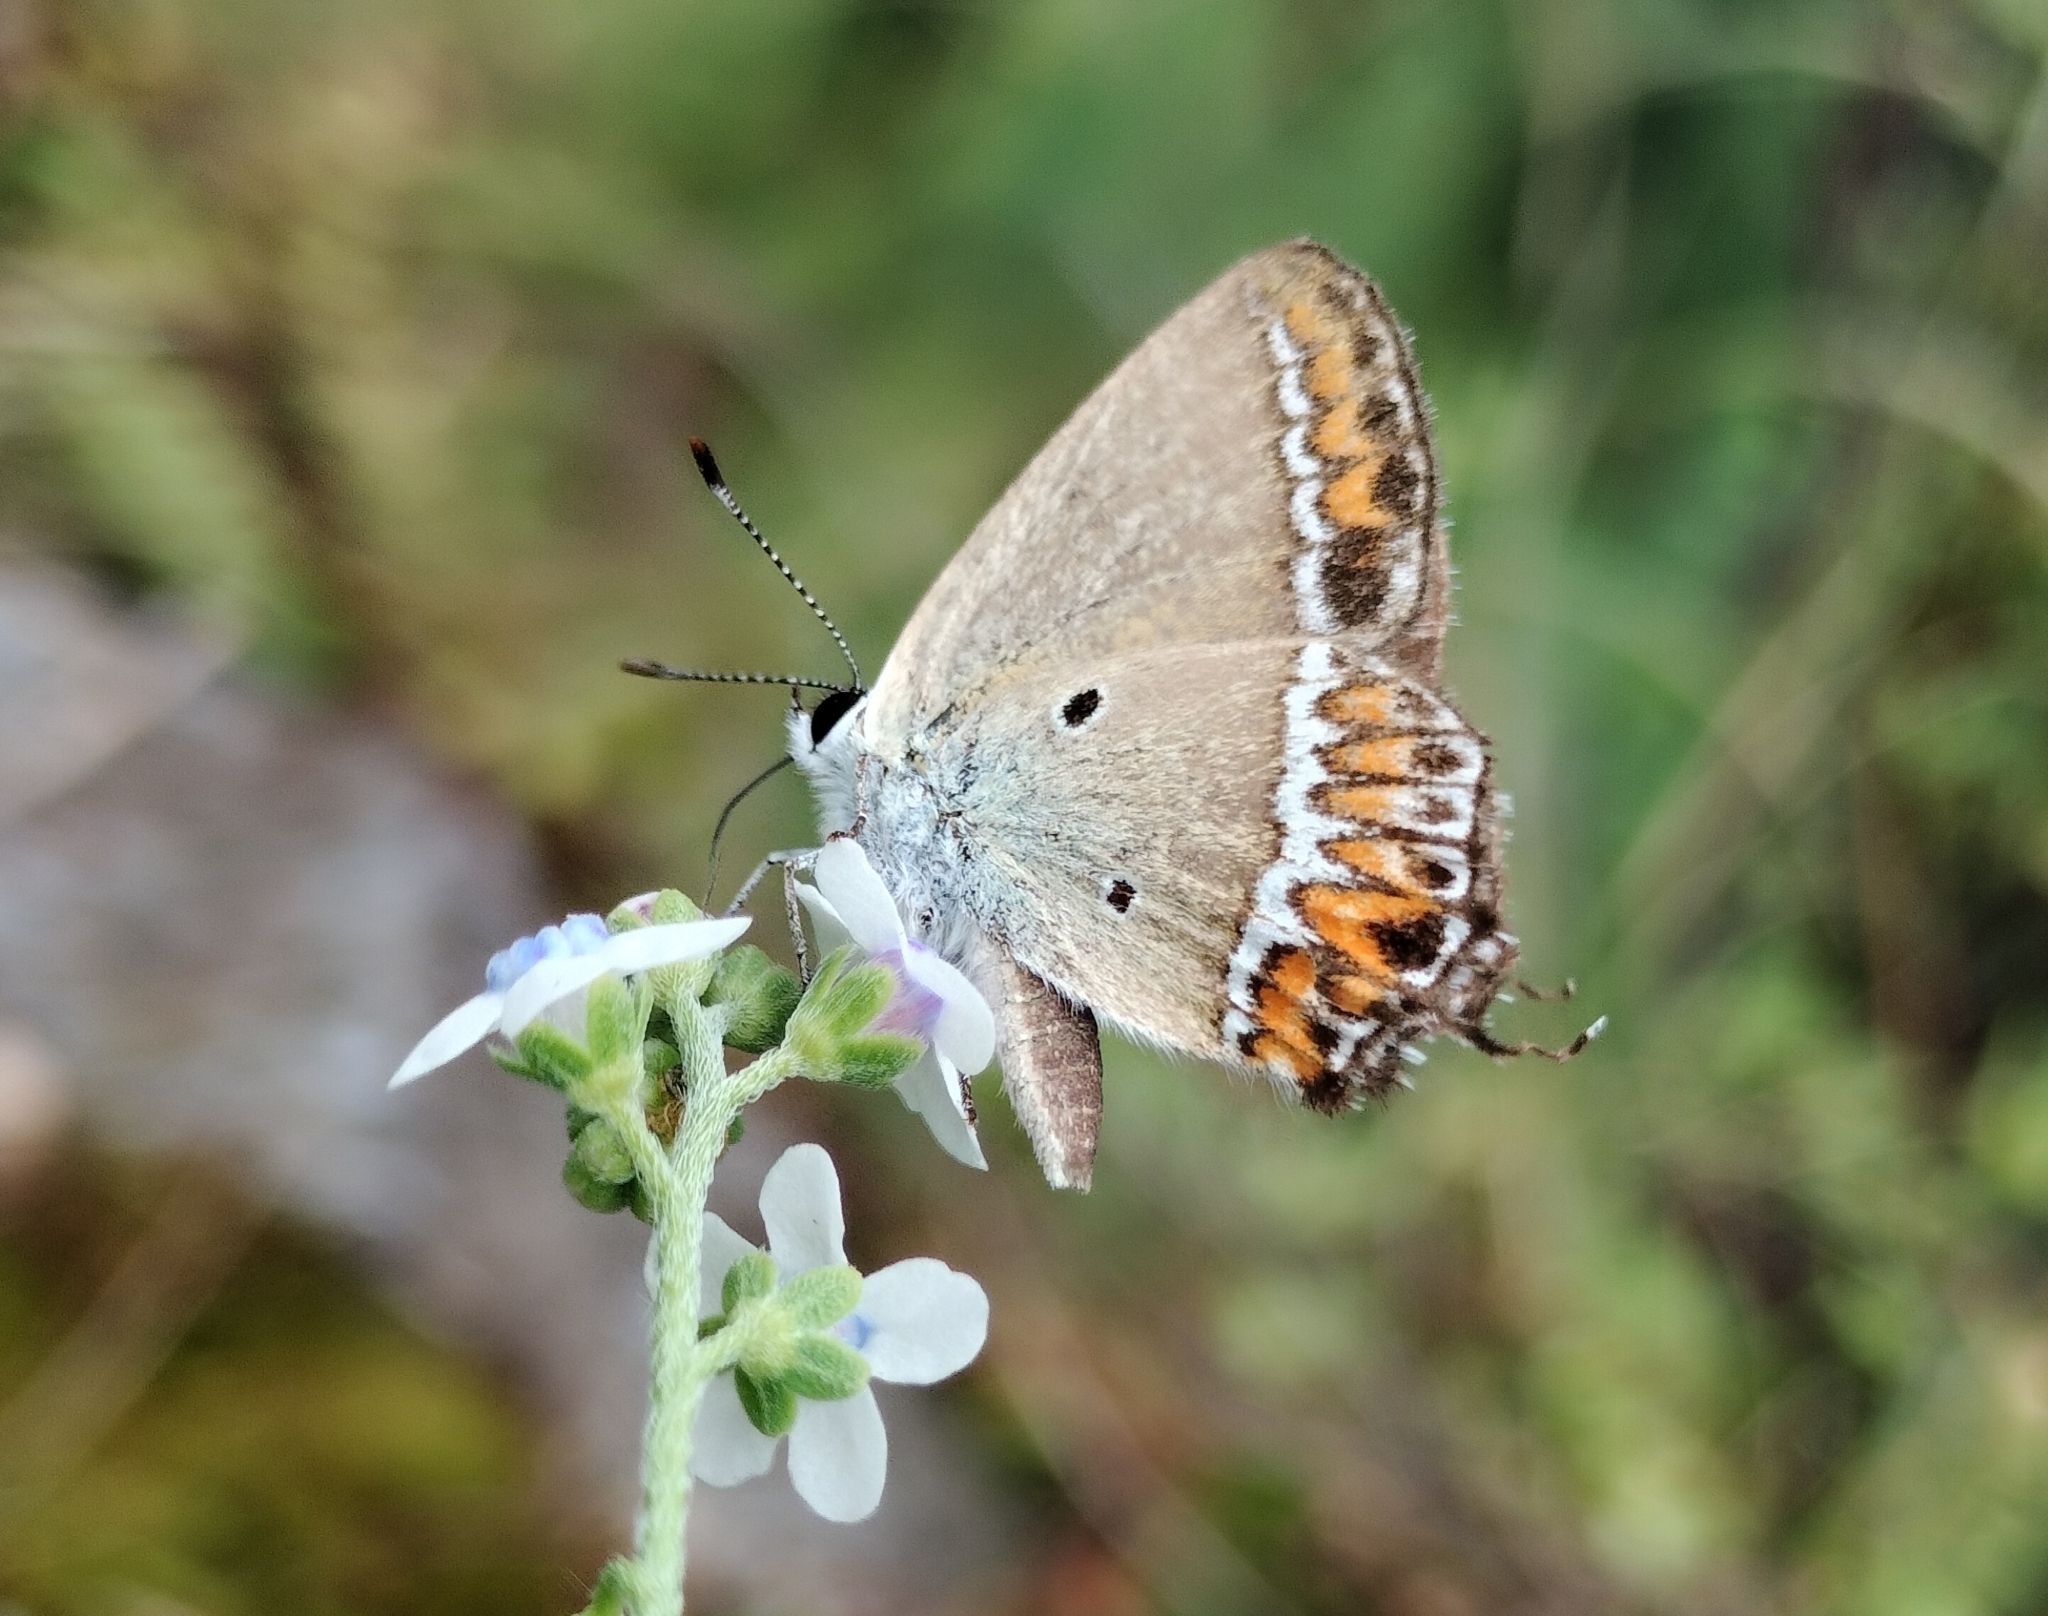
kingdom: Animalia
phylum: Arthropoda
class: Insecta
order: Lepidoptera
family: Lycaenidae
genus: Heliophorus
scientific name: Heliophorus sena
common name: Sorrel sapphire
